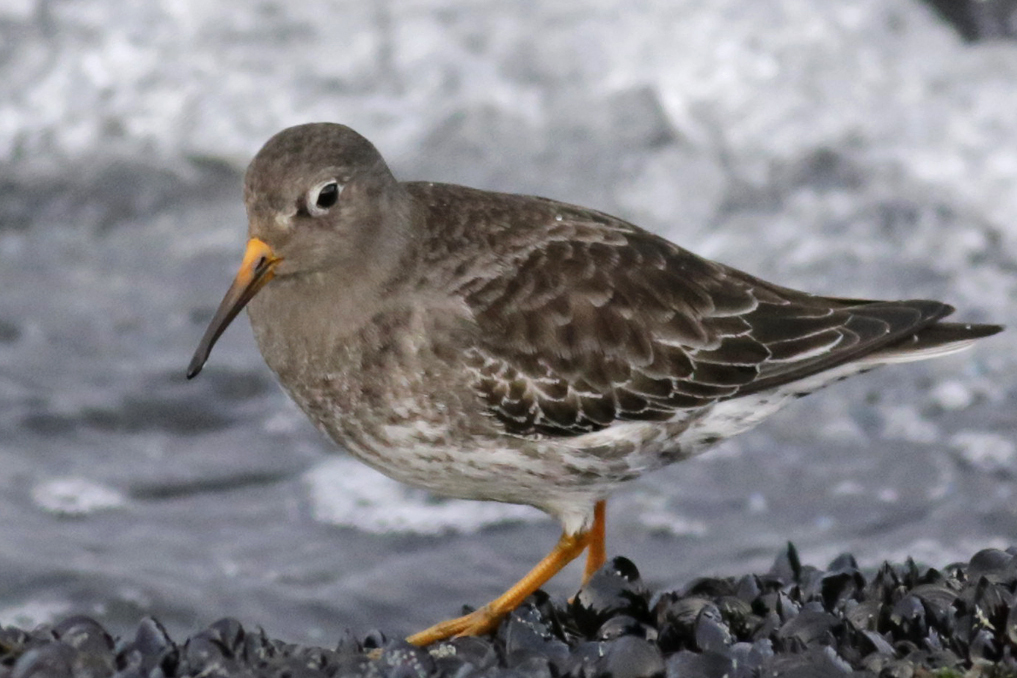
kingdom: Animalia
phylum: Chordata
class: Aves
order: Charadriiformes
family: Scolopacidae
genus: Calidris
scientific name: Calidris maritima
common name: Purple sandpiper
